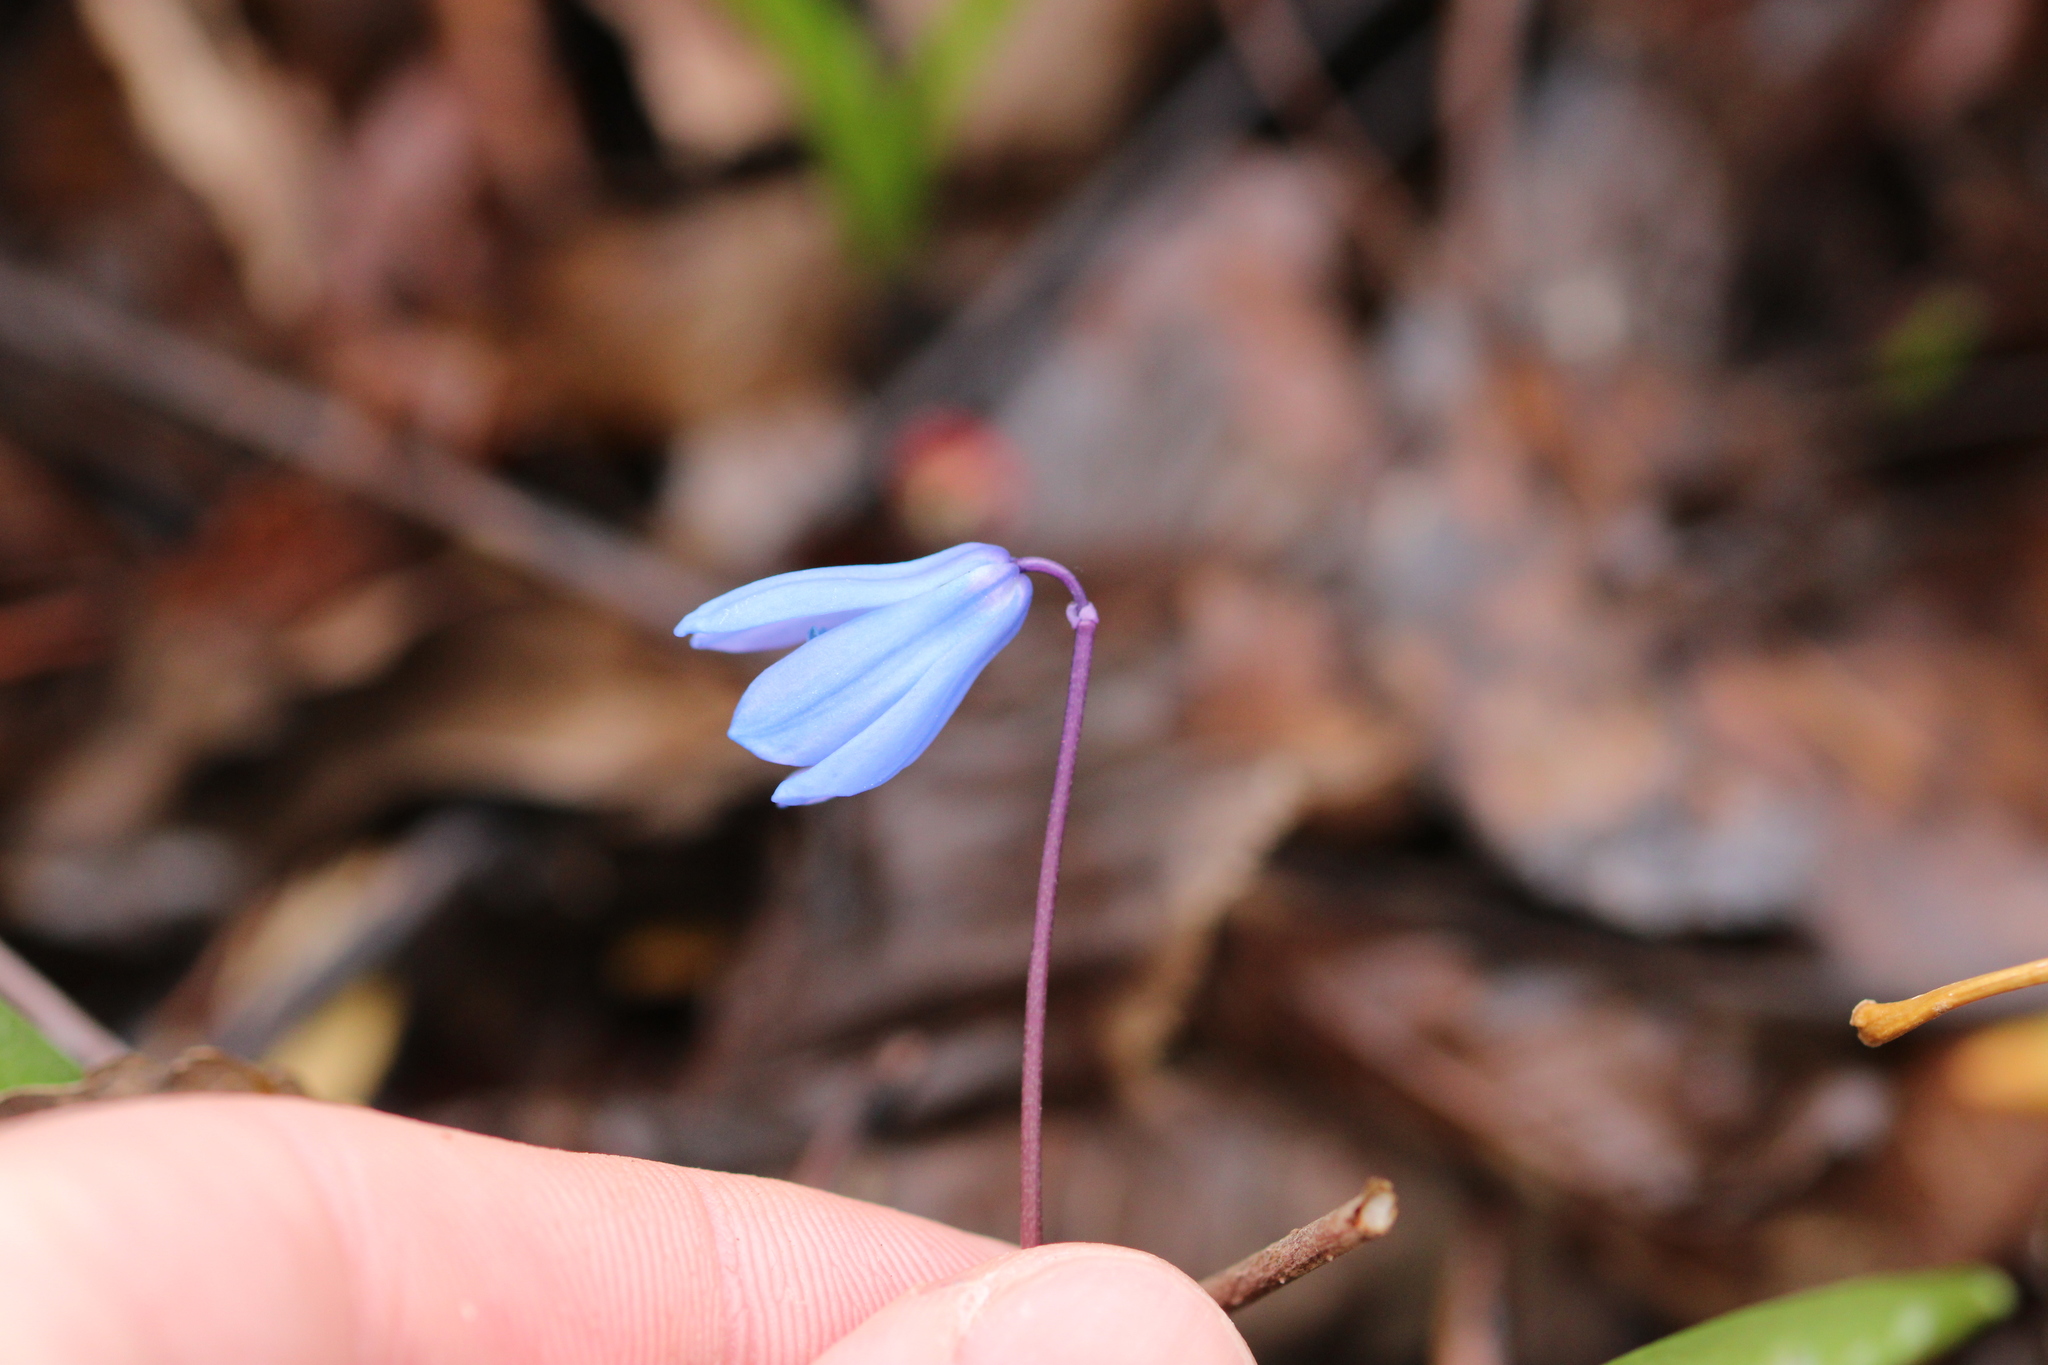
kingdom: Plantae
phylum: Tracheophyta
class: Liliopsida
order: Asparagales
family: Asparagaceae
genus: Scilla
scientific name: Scilla siberica
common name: Siberian squill
